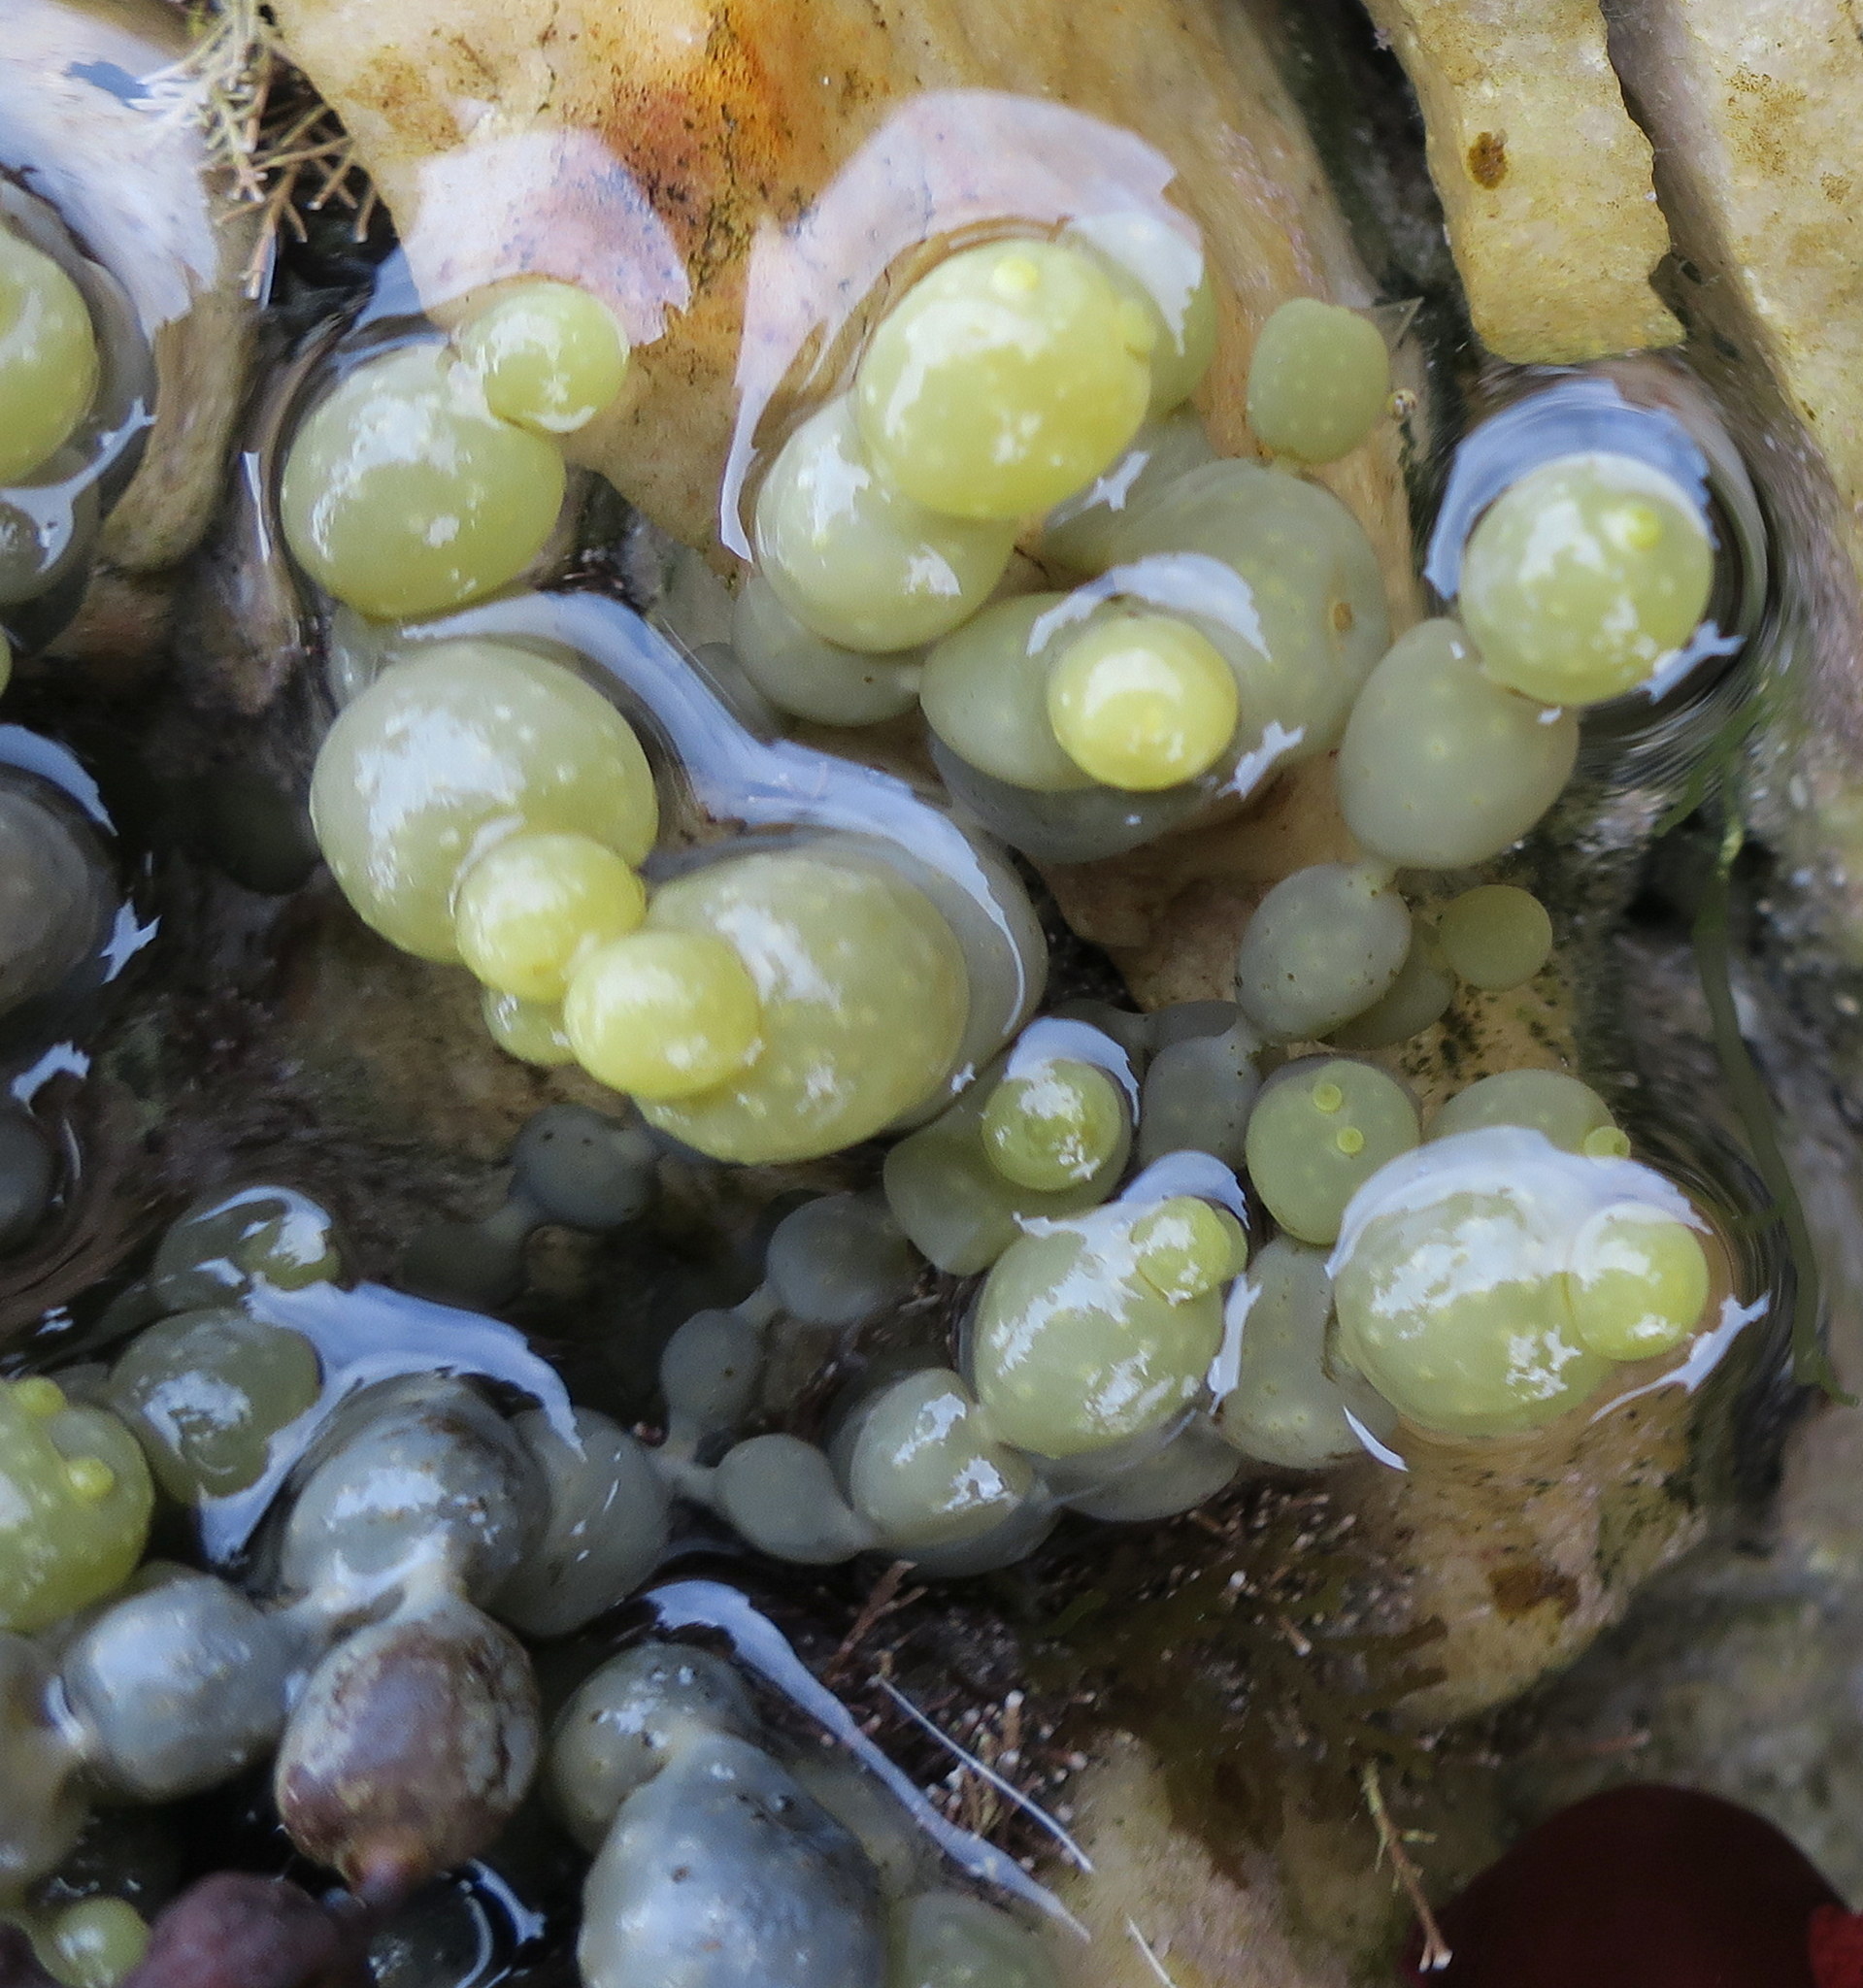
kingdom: Chromista
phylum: Ochrophyta
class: Phaeophyceae
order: Fucales
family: Hormosiraceae
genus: Hormosira
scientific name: Hormosira banksii
